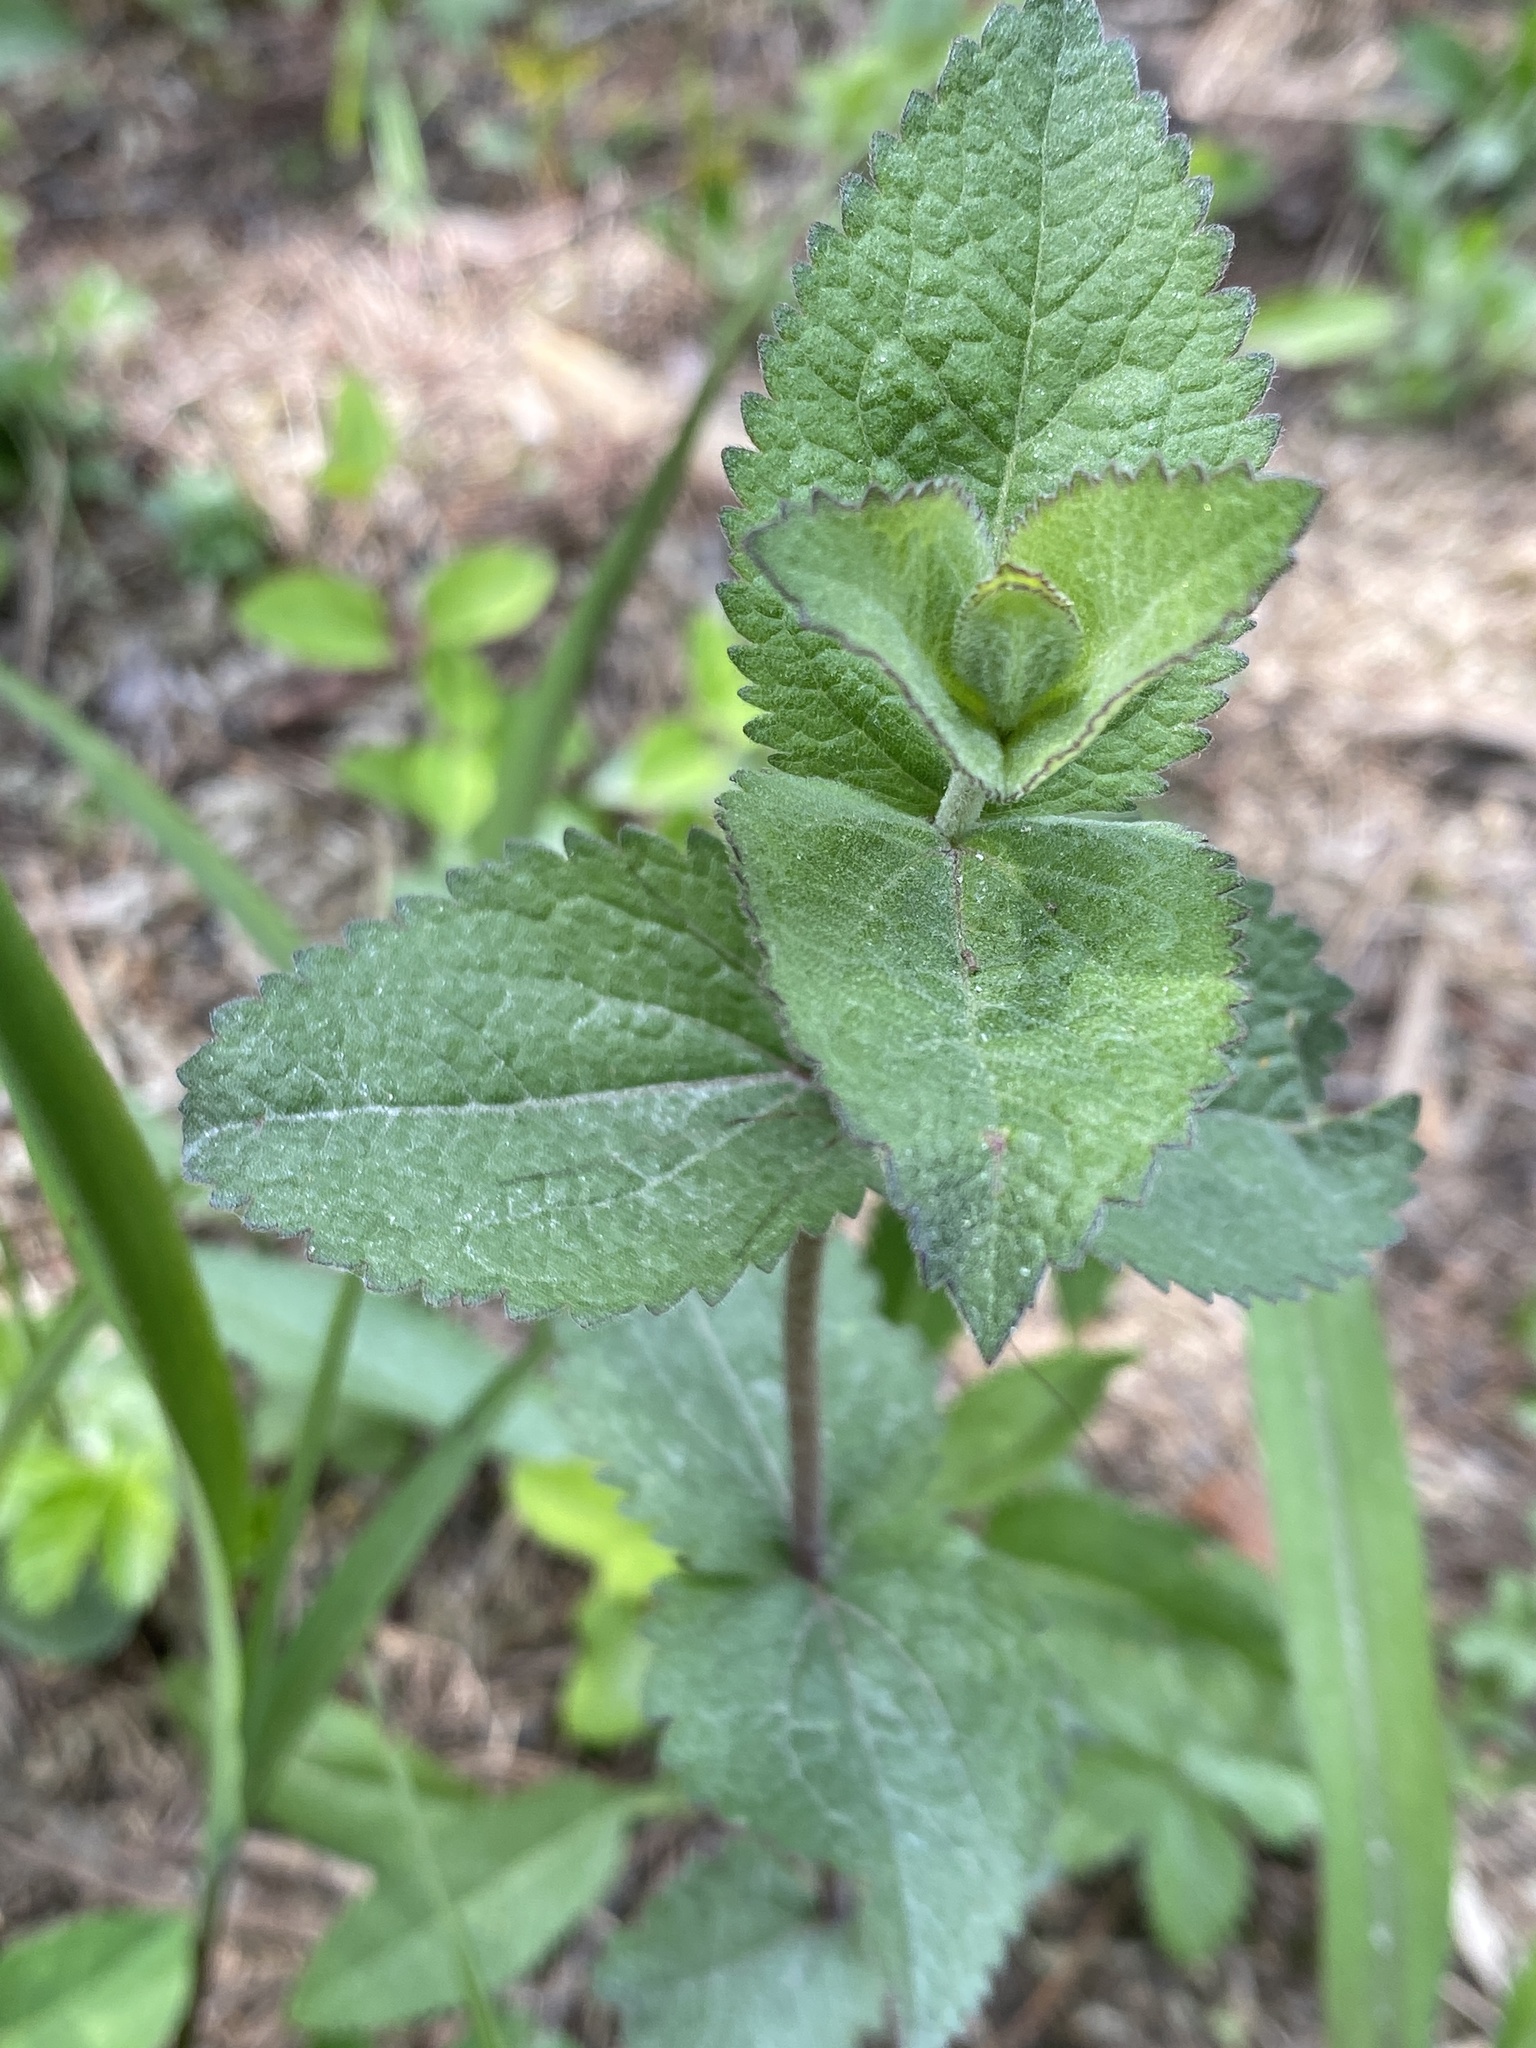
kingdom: Plantae
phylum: Tracheophyta
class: Magnoliopsida
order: Asterales
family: Asteraceae
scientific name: Asteraceae
